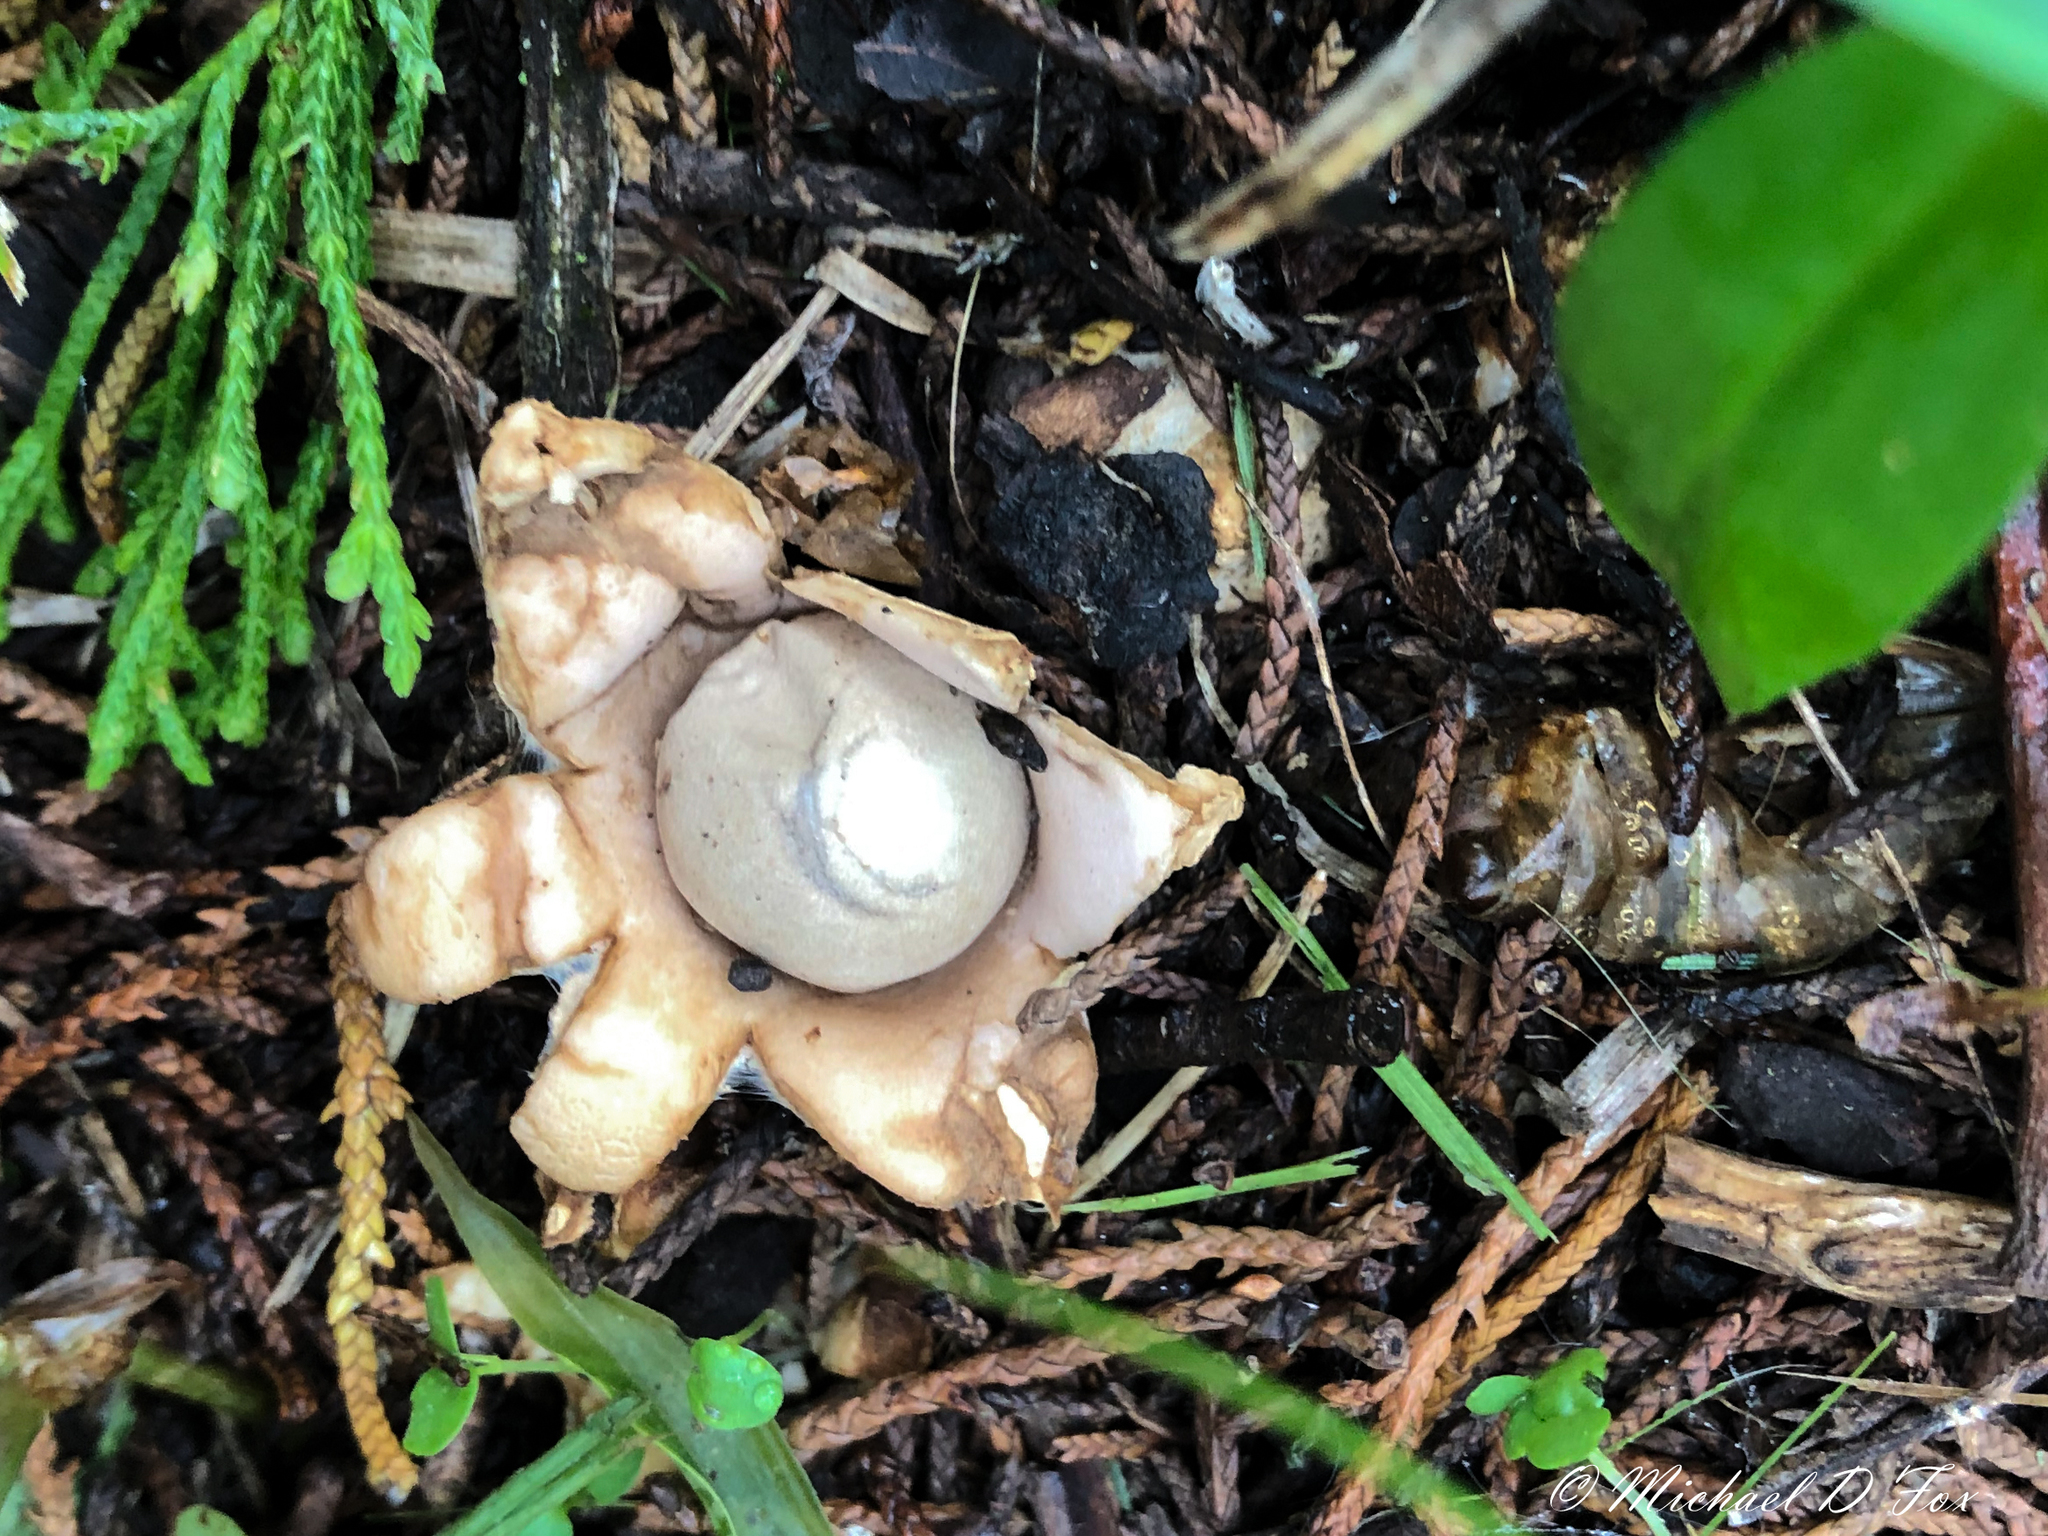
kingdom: Fungi
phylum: Basidiomycota
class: Agaricomycetes
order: Geastrales
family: Geastraceae
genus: Geastrum
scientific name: Geastrum fimbriatum
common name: Sessile earthstar
